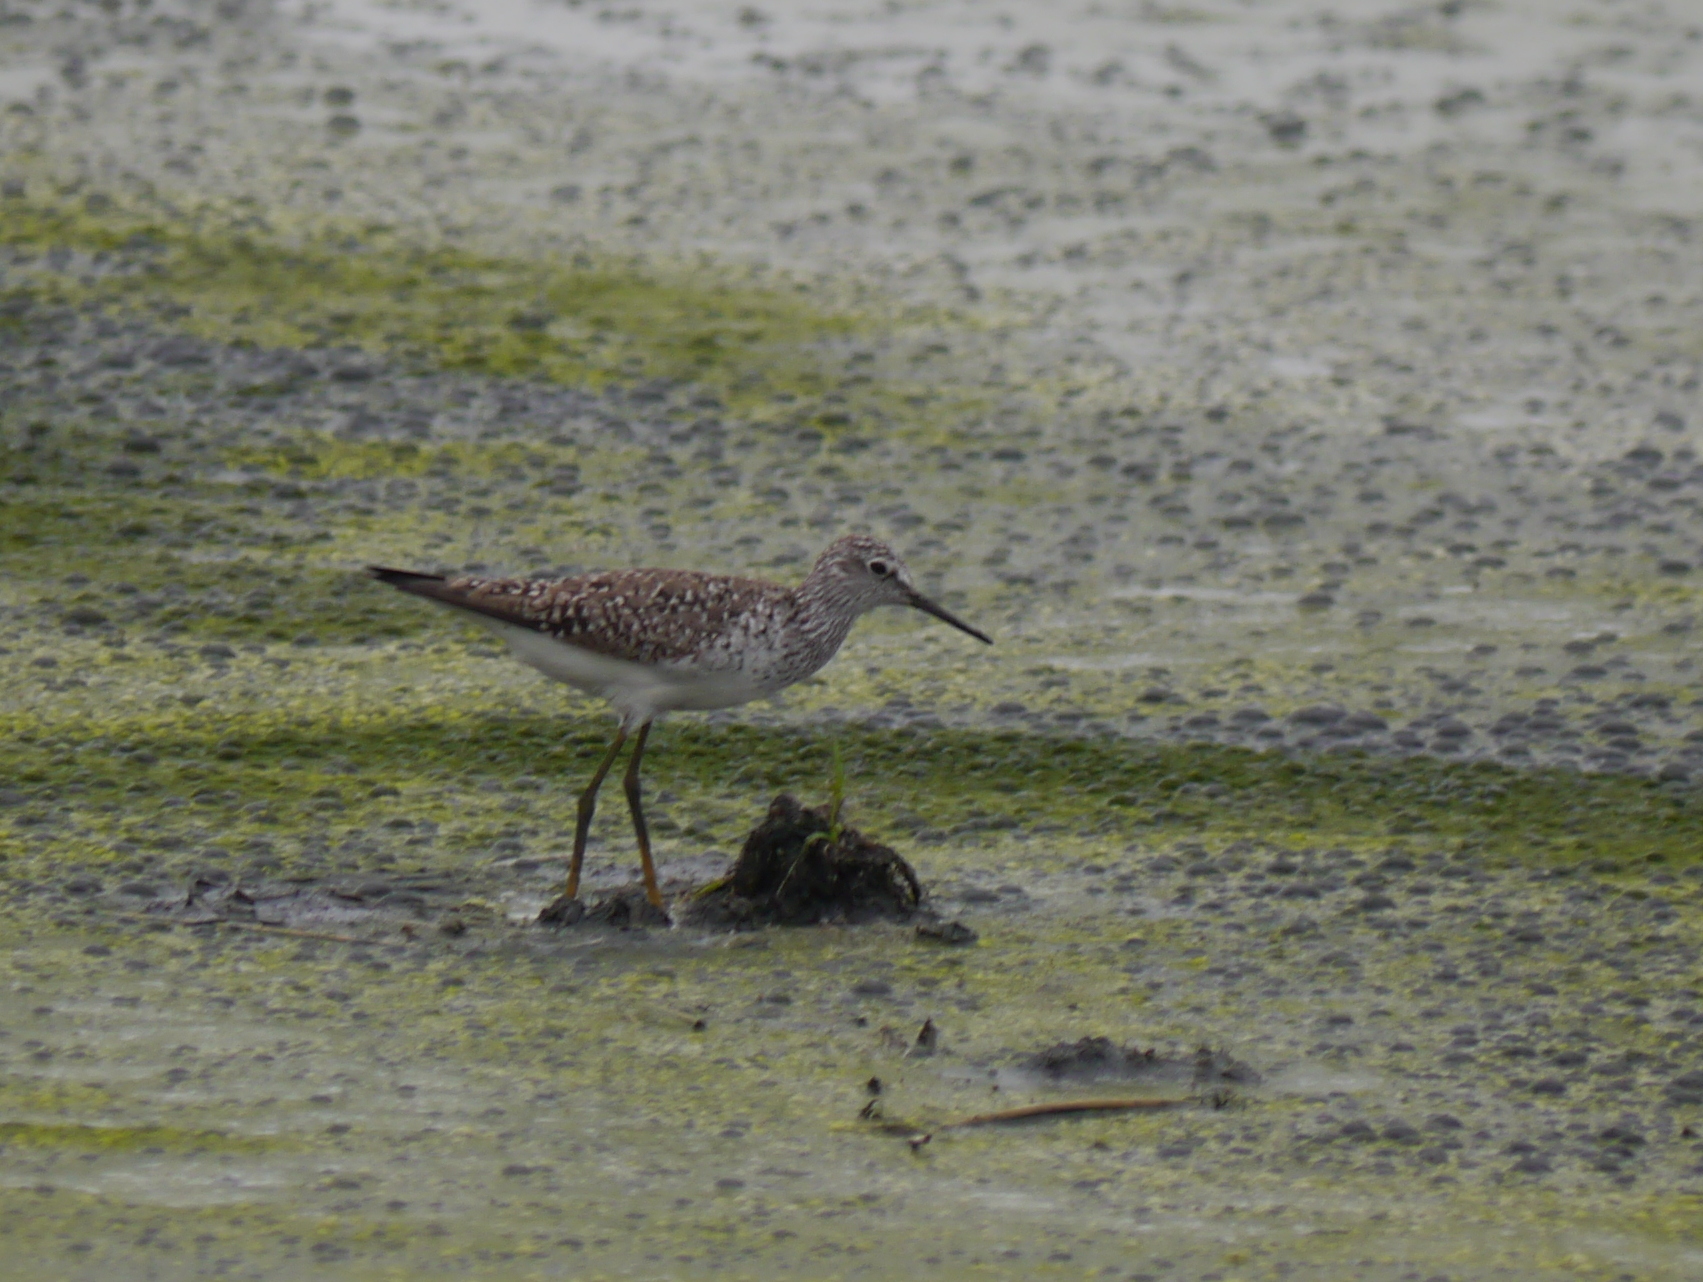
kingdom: Animalia
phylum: Chordata
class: Aves
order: Charadriiformes
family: Scolopacidae
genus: Tringa
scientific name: Tringa flavipes
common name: Lesser yellowlegs
